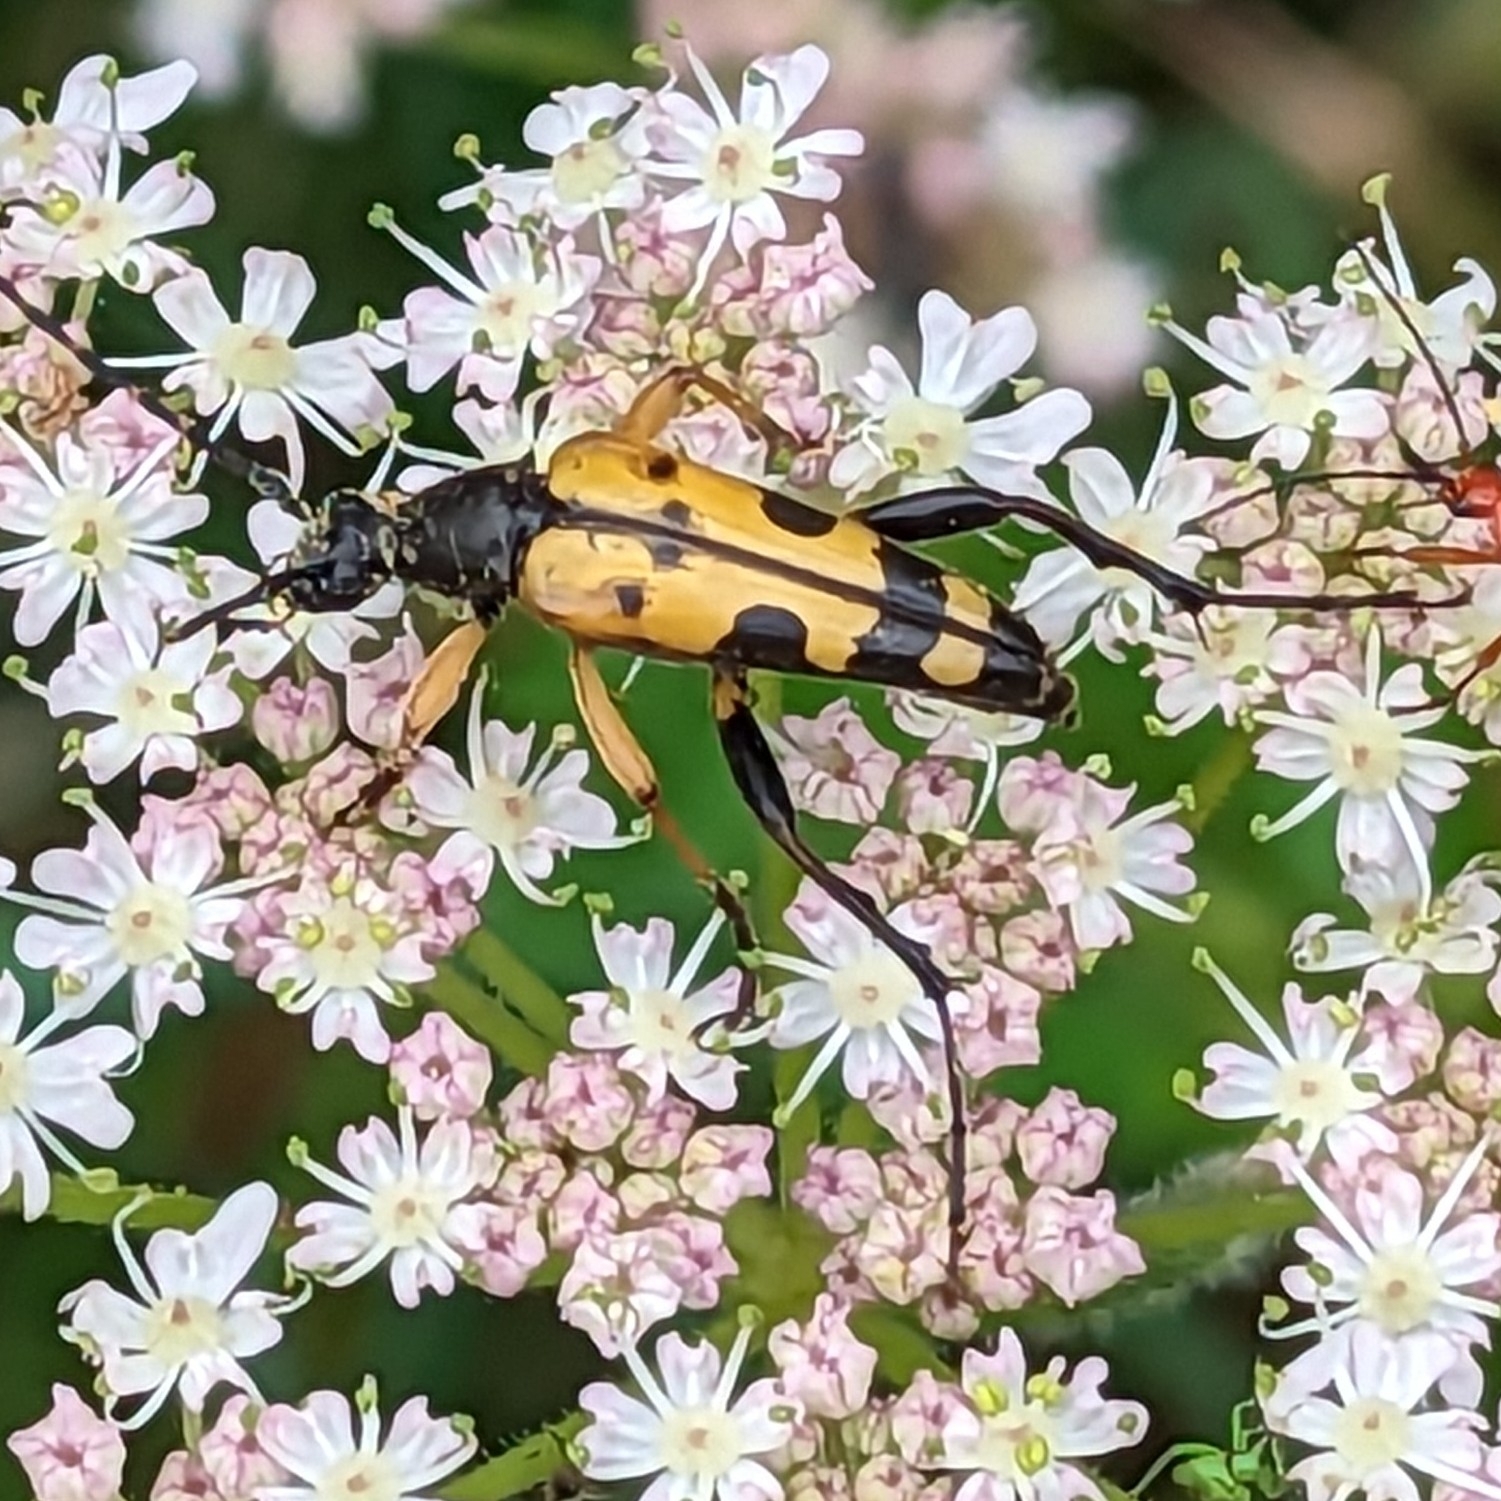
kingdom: Animalia
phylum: Arthropoda
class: Insecta
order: Coleoptera
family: Cerambycidae
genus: Rutpela
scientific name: Rutpela maculata
